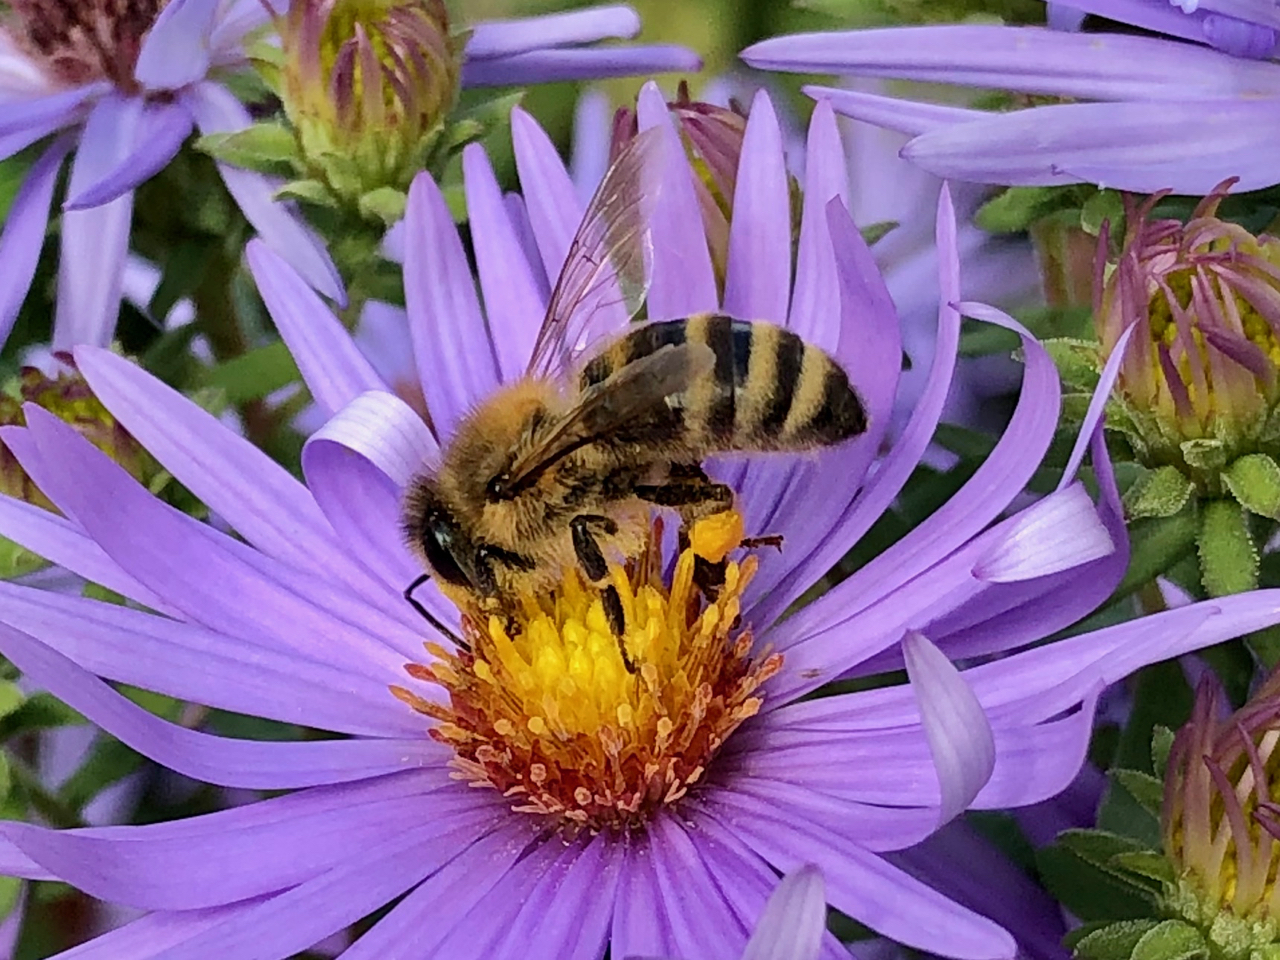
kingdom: Animalia
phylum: Arthropoda
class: Insecta
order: Hymenoptera
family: Apidae
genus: Apis
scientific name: Apis mellifera
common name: Honey bee
